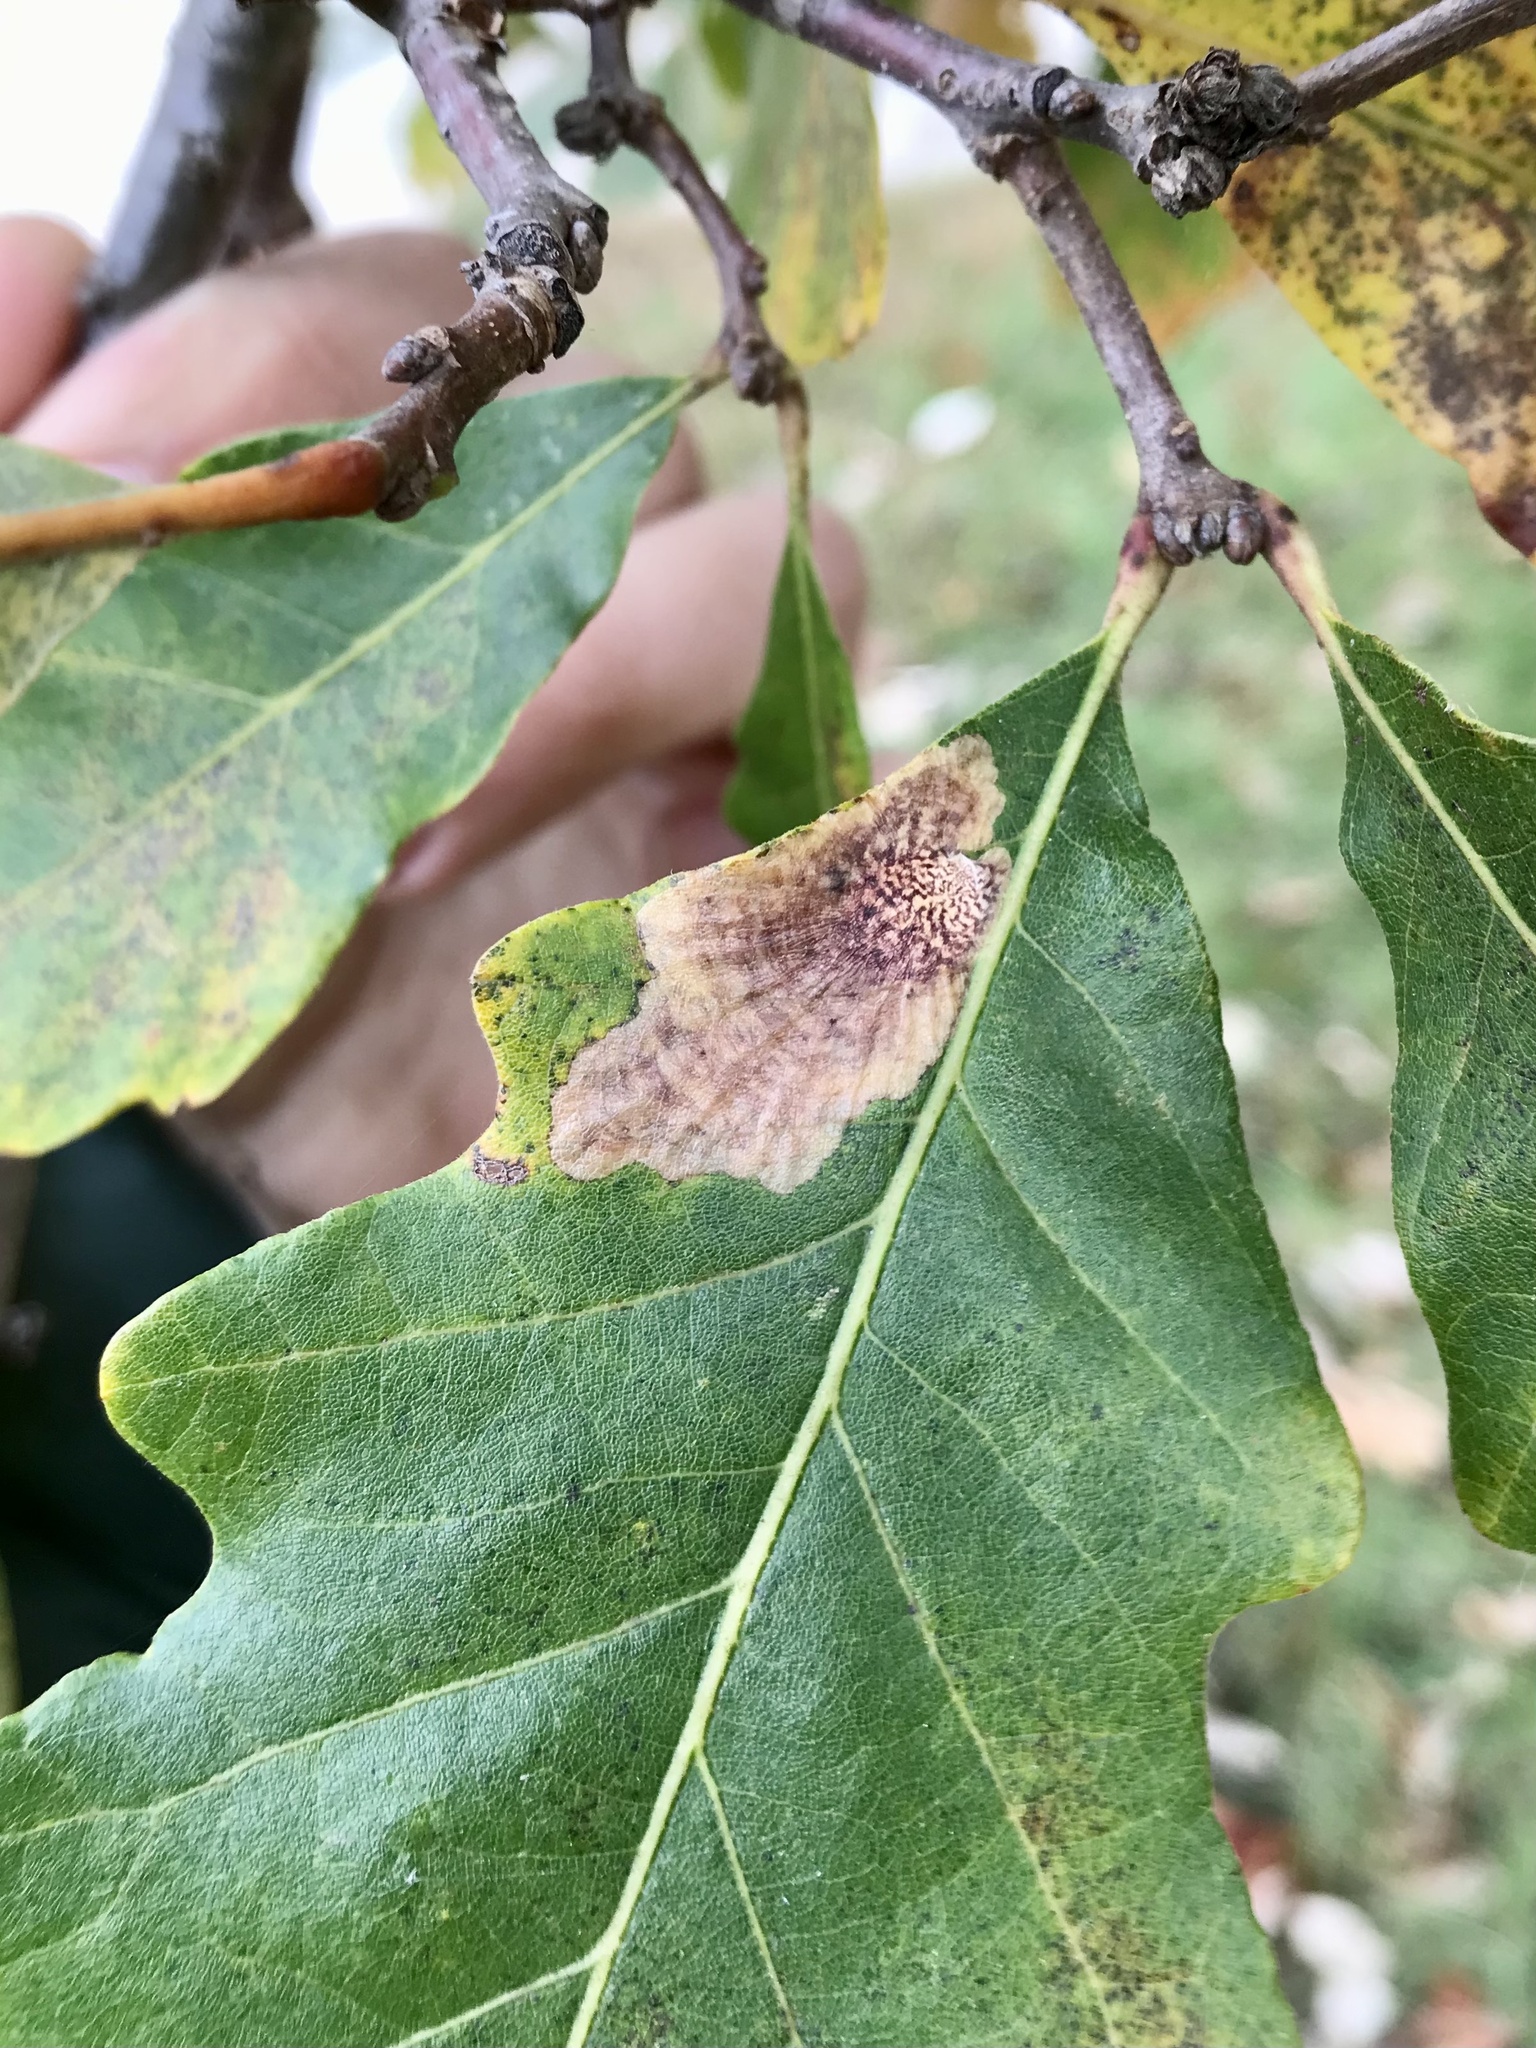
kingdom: Animalia
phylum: Arthropoda
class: Insecta
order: Lepidoptera
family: Tischeriidae
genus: Tischeria
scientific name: Tischeria quercitella
